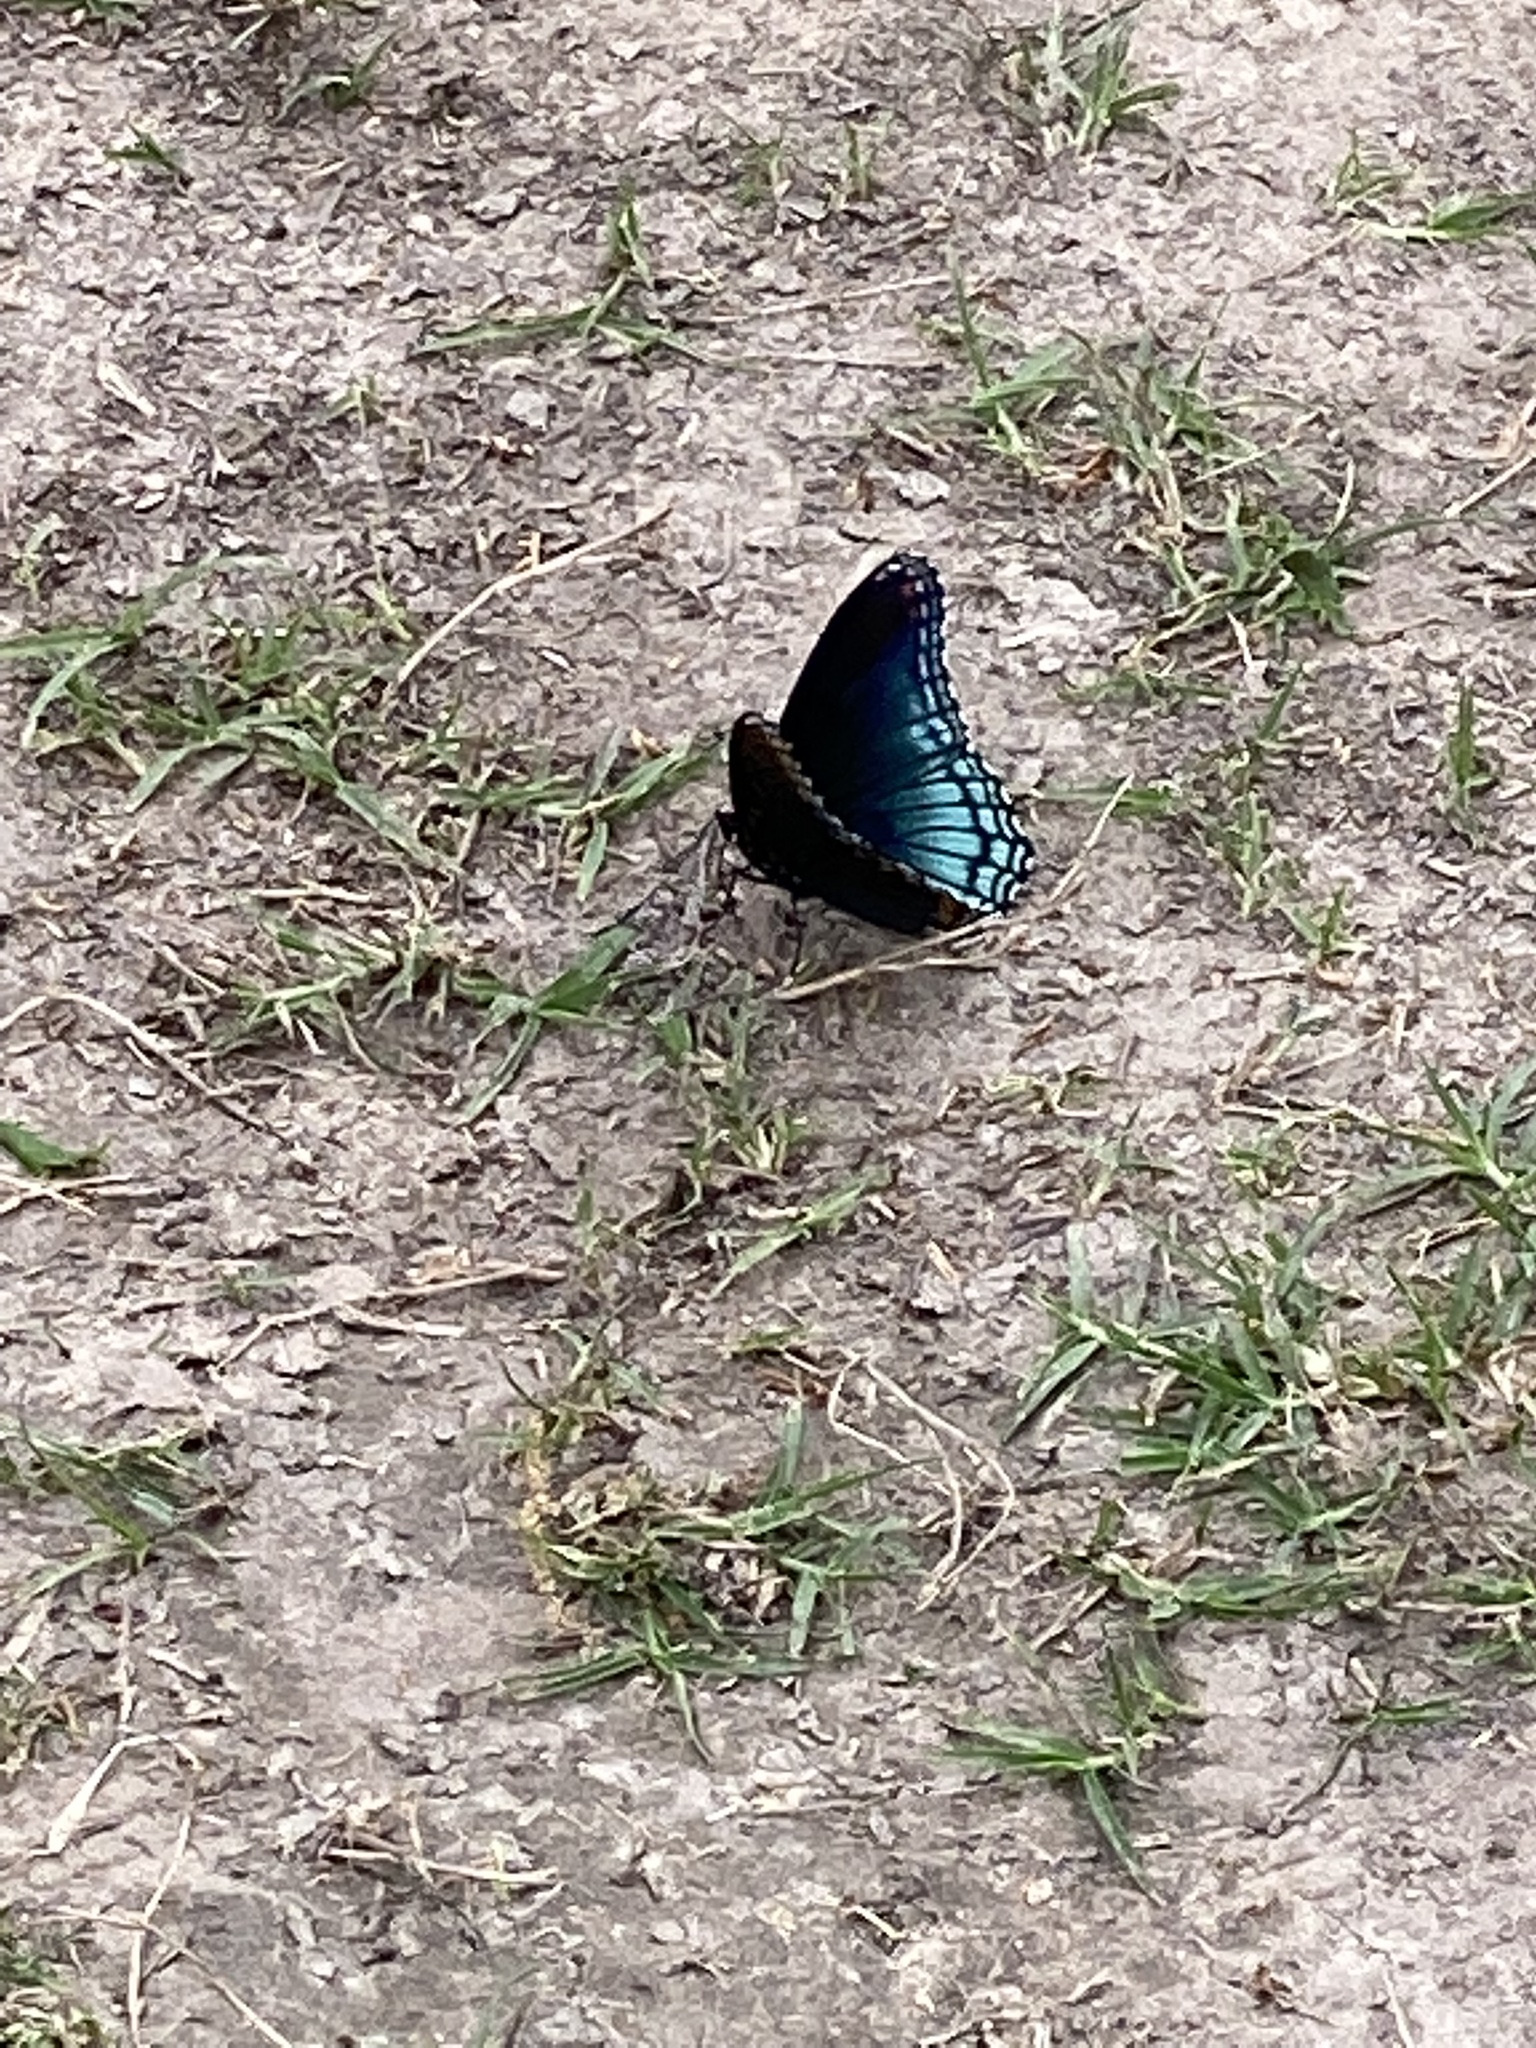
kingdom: Animalia
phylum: Arthropoda
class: Insecta
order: Lepidoptera
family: Nymphalidae
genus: Limenitis
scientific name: Limenitis arthemis
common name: Red-spotted admiral
